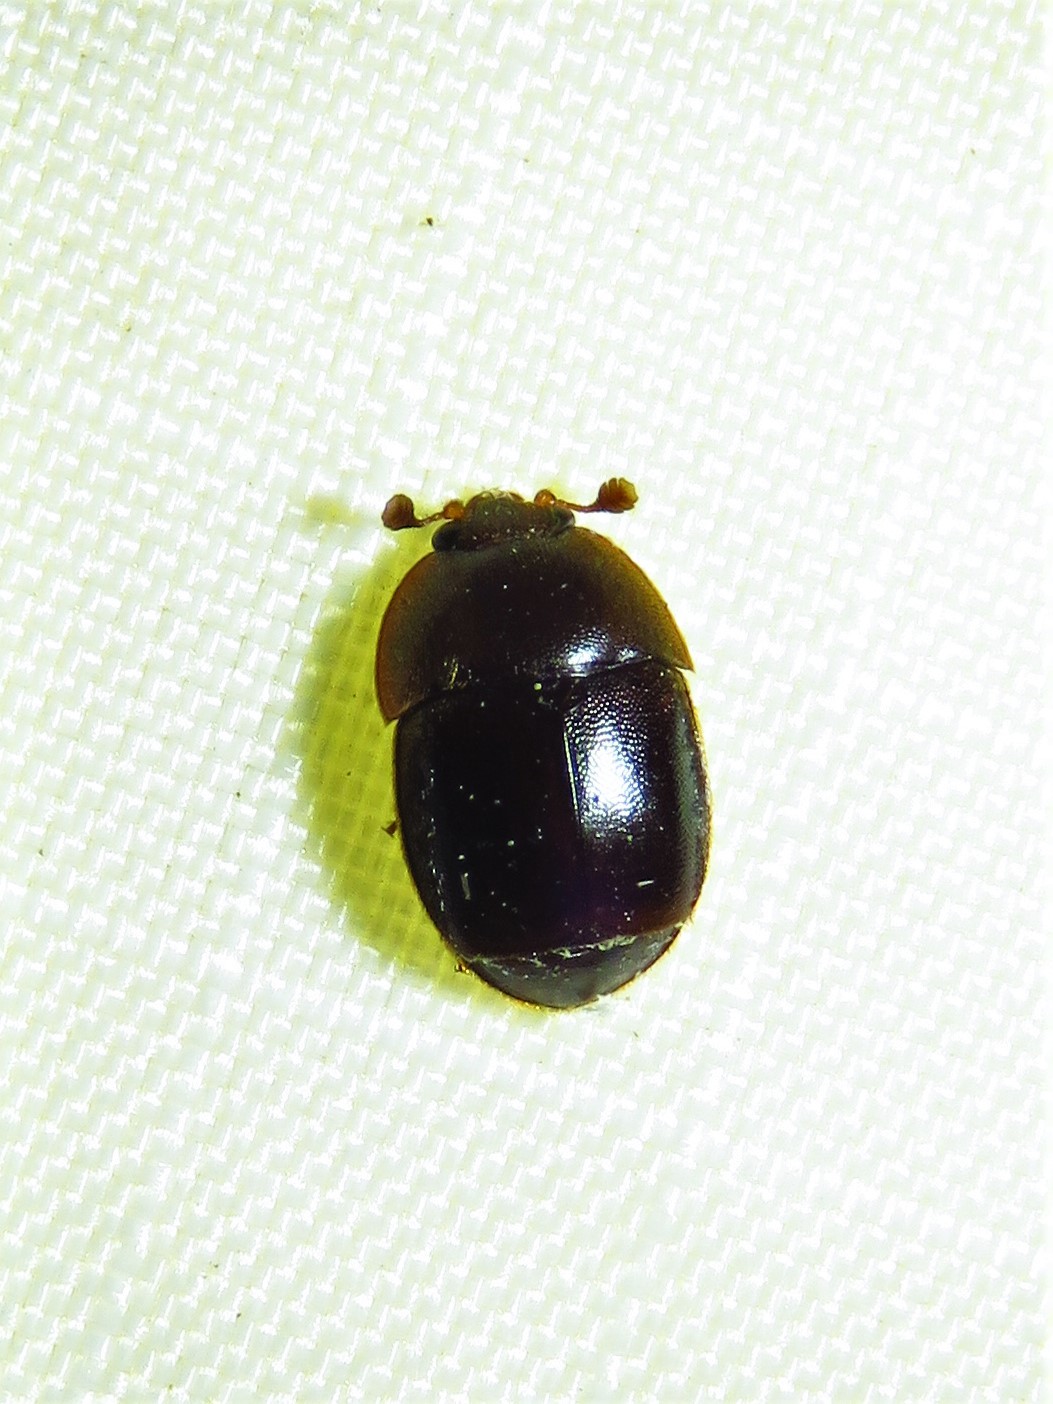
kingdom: Animalia
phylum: Arthropoda
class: Insecta
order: Coleoptera
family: Nitidulidae
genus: Aethina
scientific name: Aethina tumida
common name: Small hive beetle
